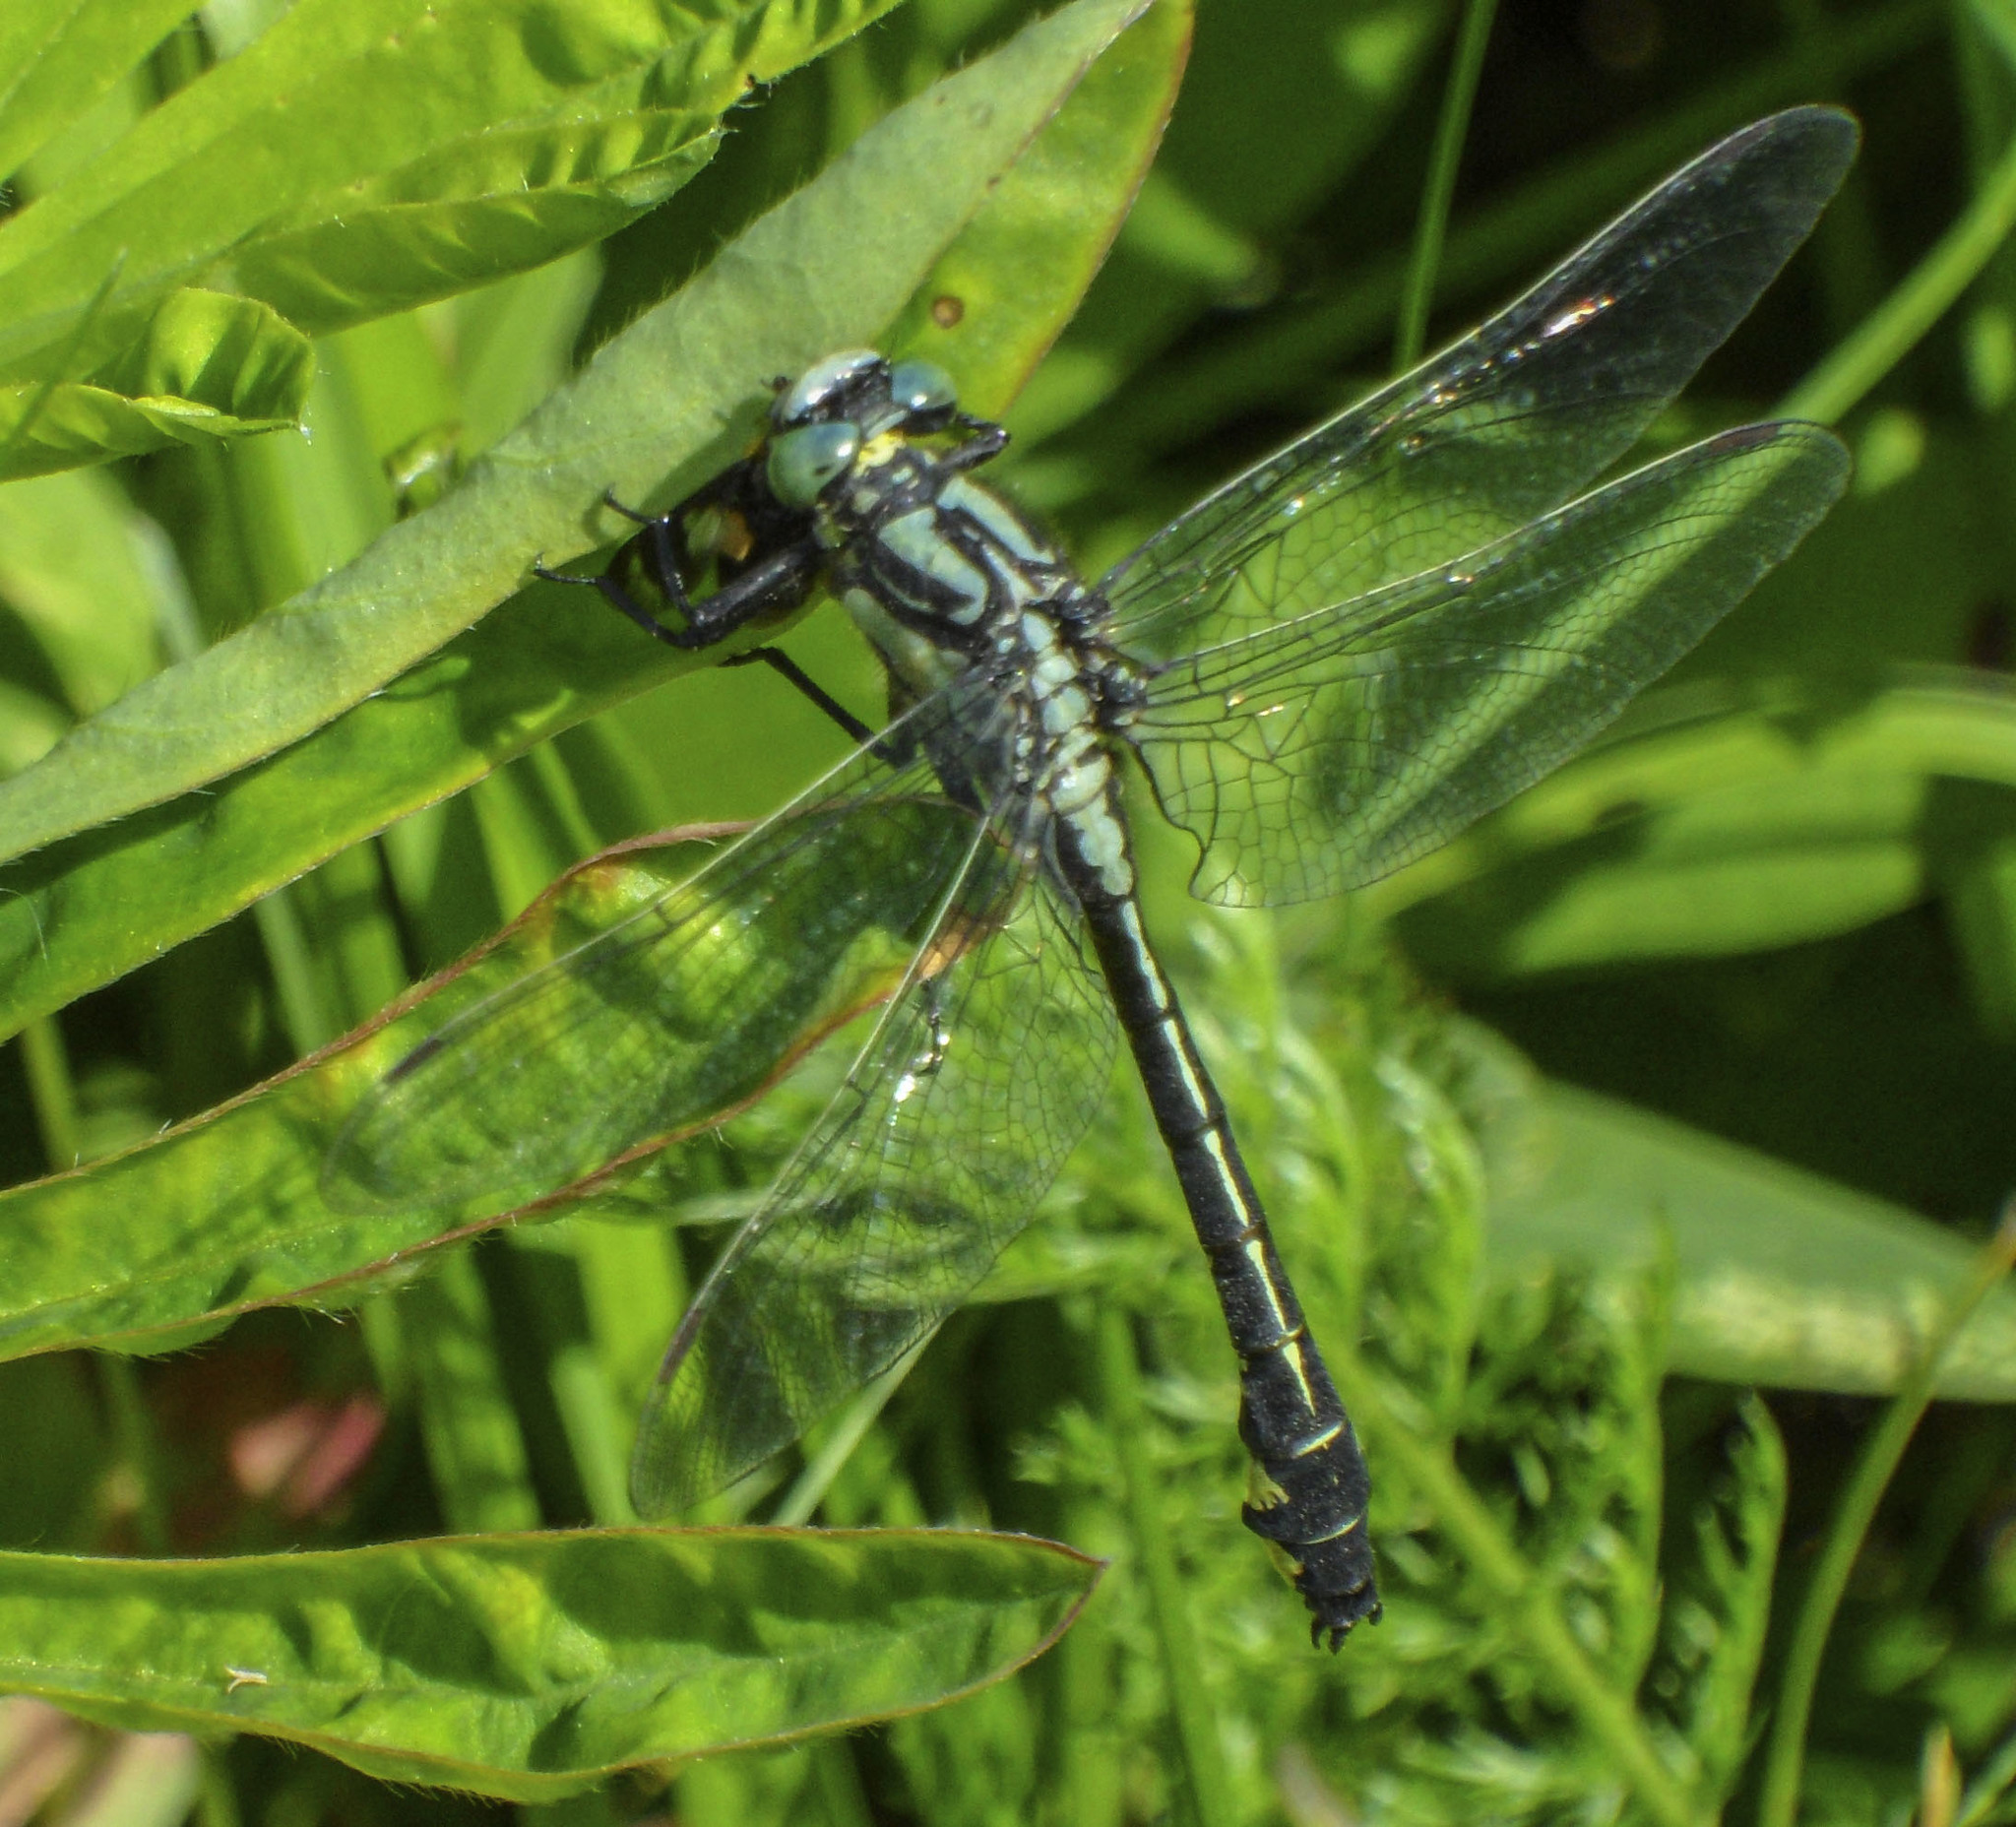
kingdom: Animalia
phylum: Arthropoda
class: Insecta
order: Odonata
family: Gomphidae
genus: Gomphus
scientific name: Gomphus vulgatissimus
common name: Club-tailed dragonfly
